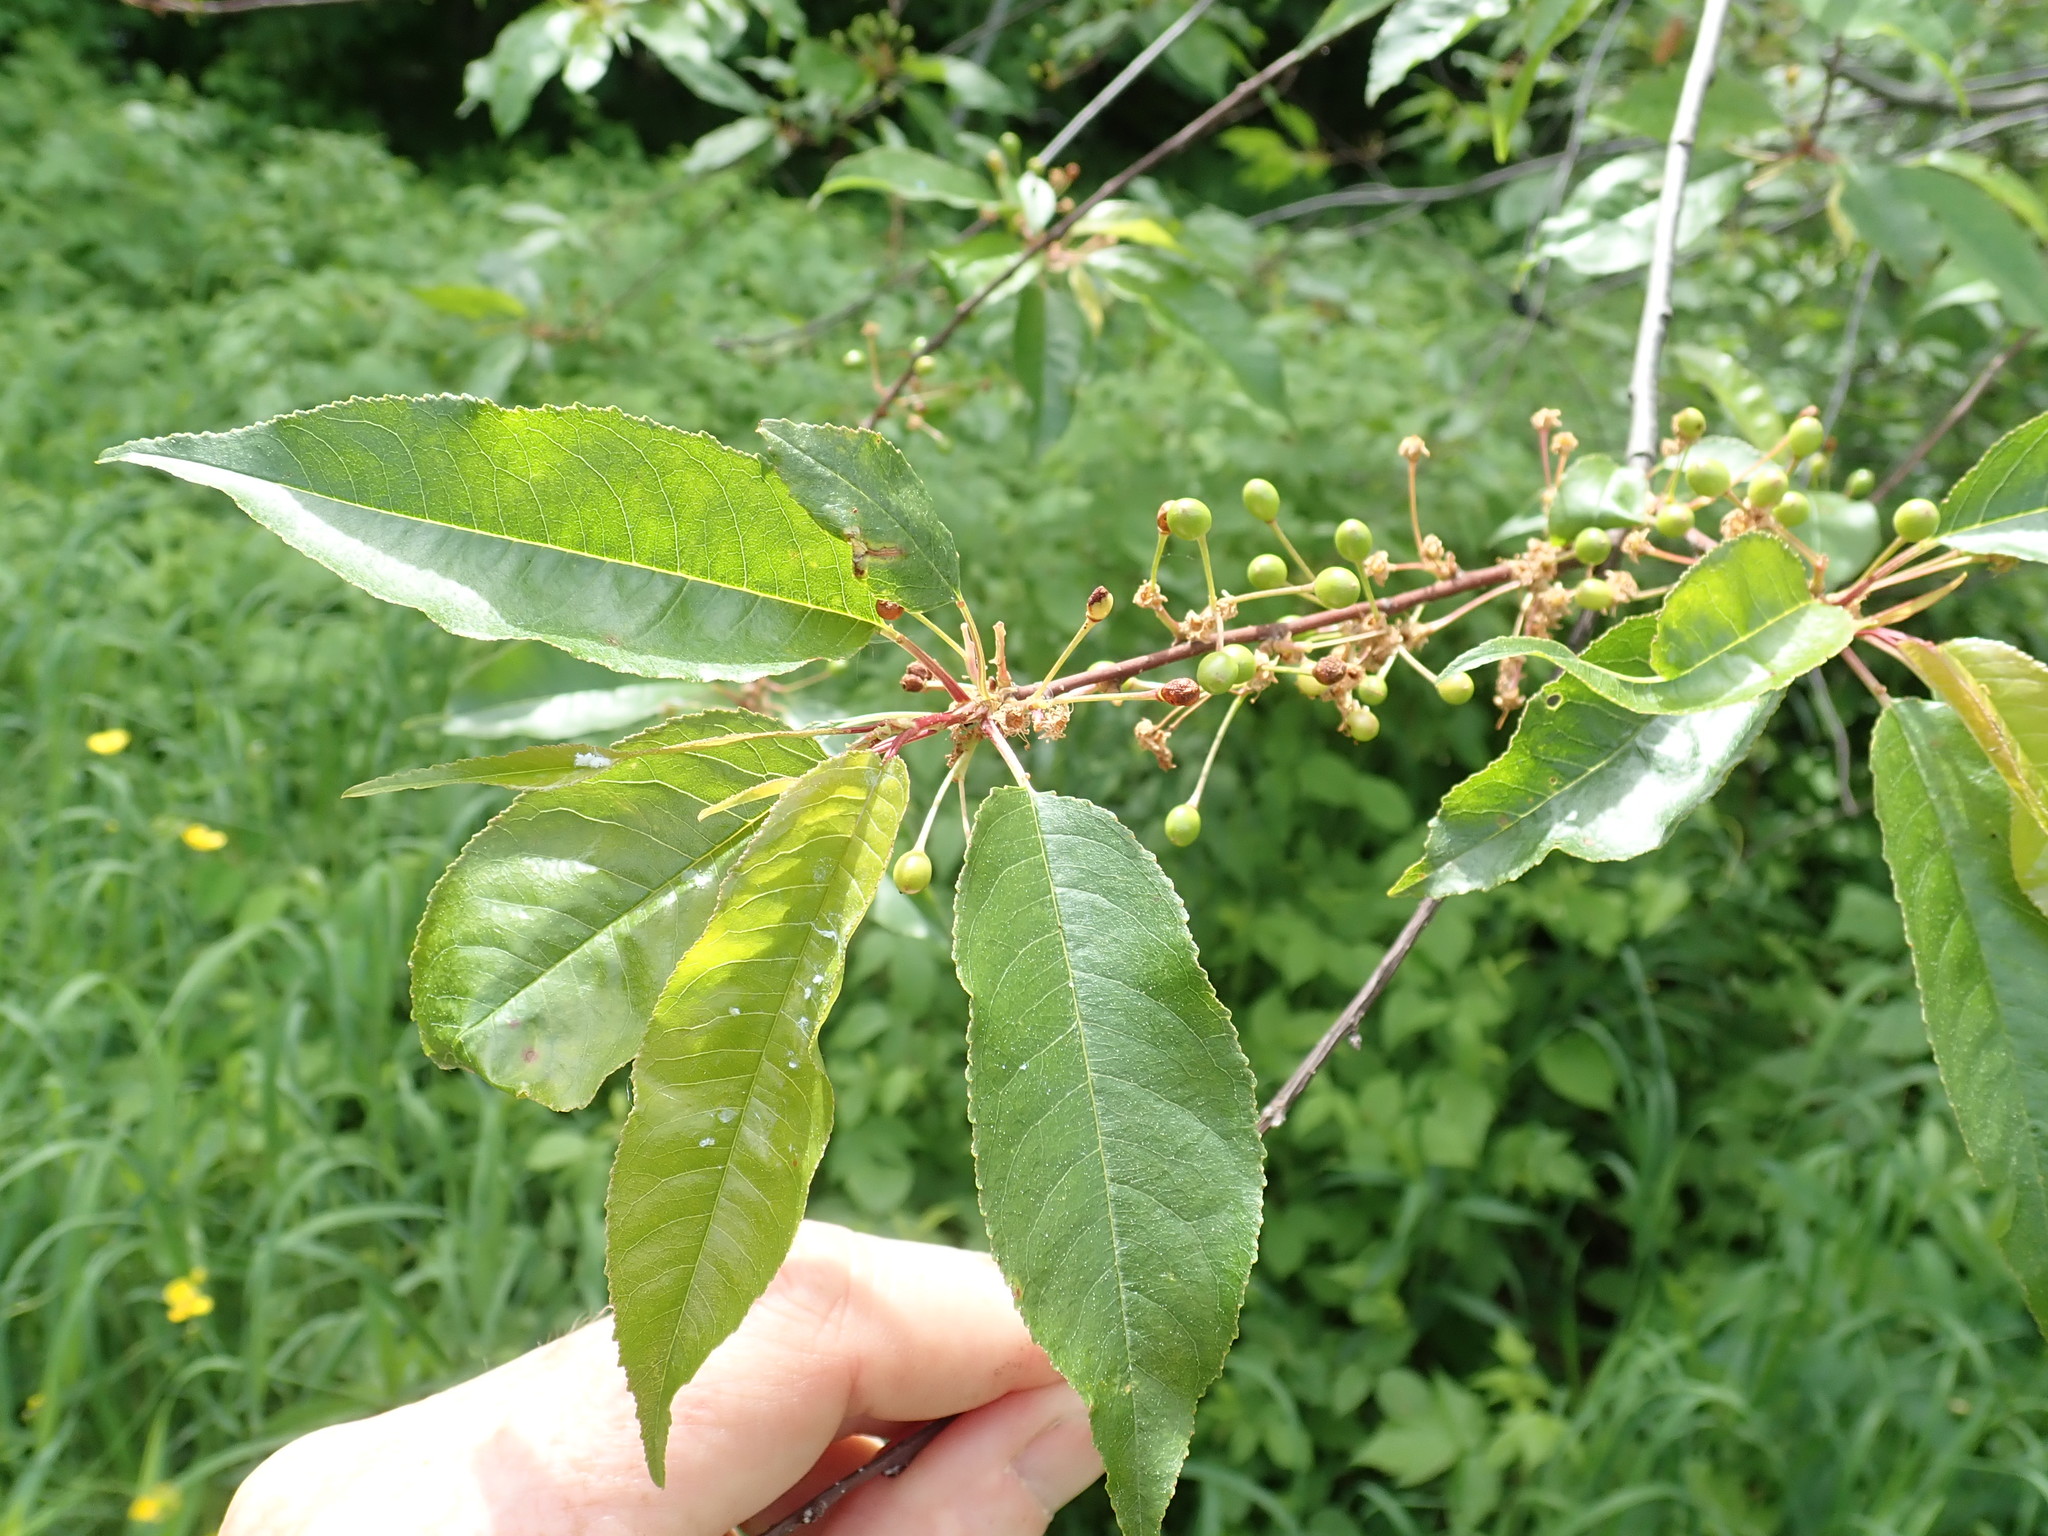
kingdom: Plantae
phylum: Tracheophyta
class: Magnoliopsida
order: Rosales
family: Rosaceae
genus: Prunus
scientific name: Prunus pensylvanica
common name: Pin cherry
